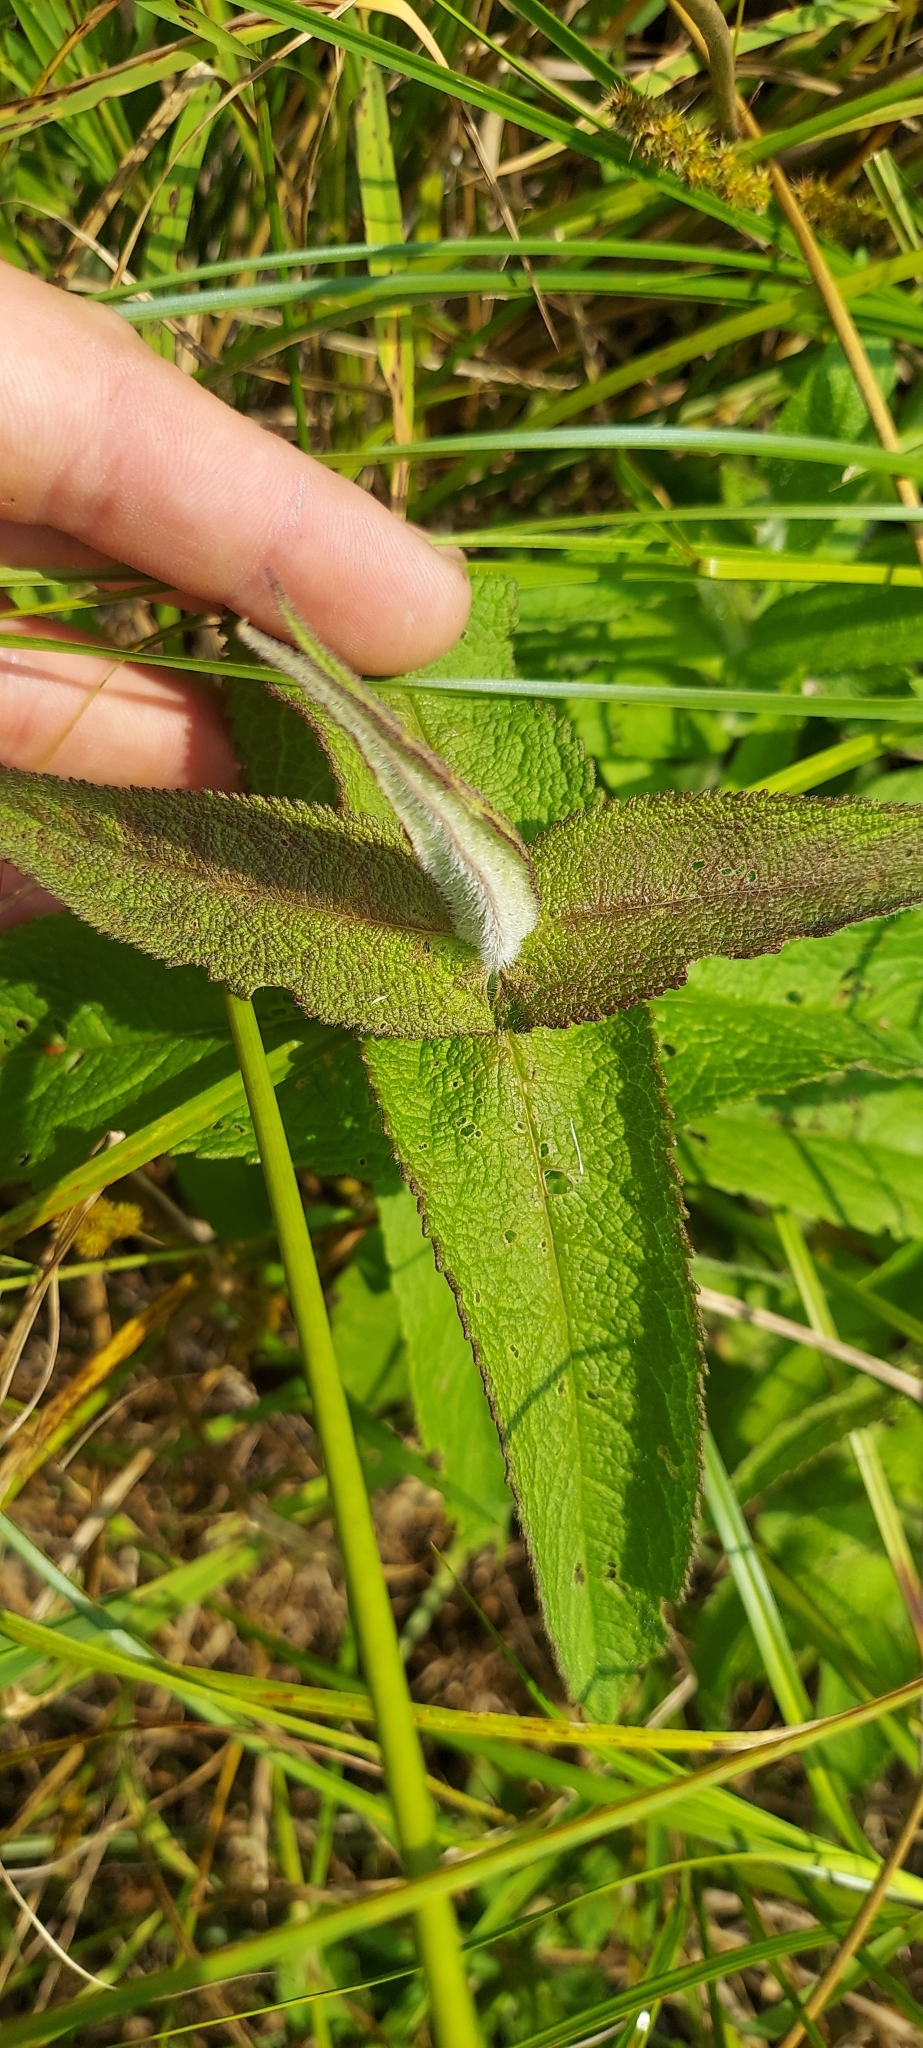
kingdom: Plantae
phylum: Tracheophyta
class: Magnoliopsida
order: Asterales
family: Asteraceae
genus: Eupatorium
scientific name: Eupatorium perfoliatum
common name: Boneset
